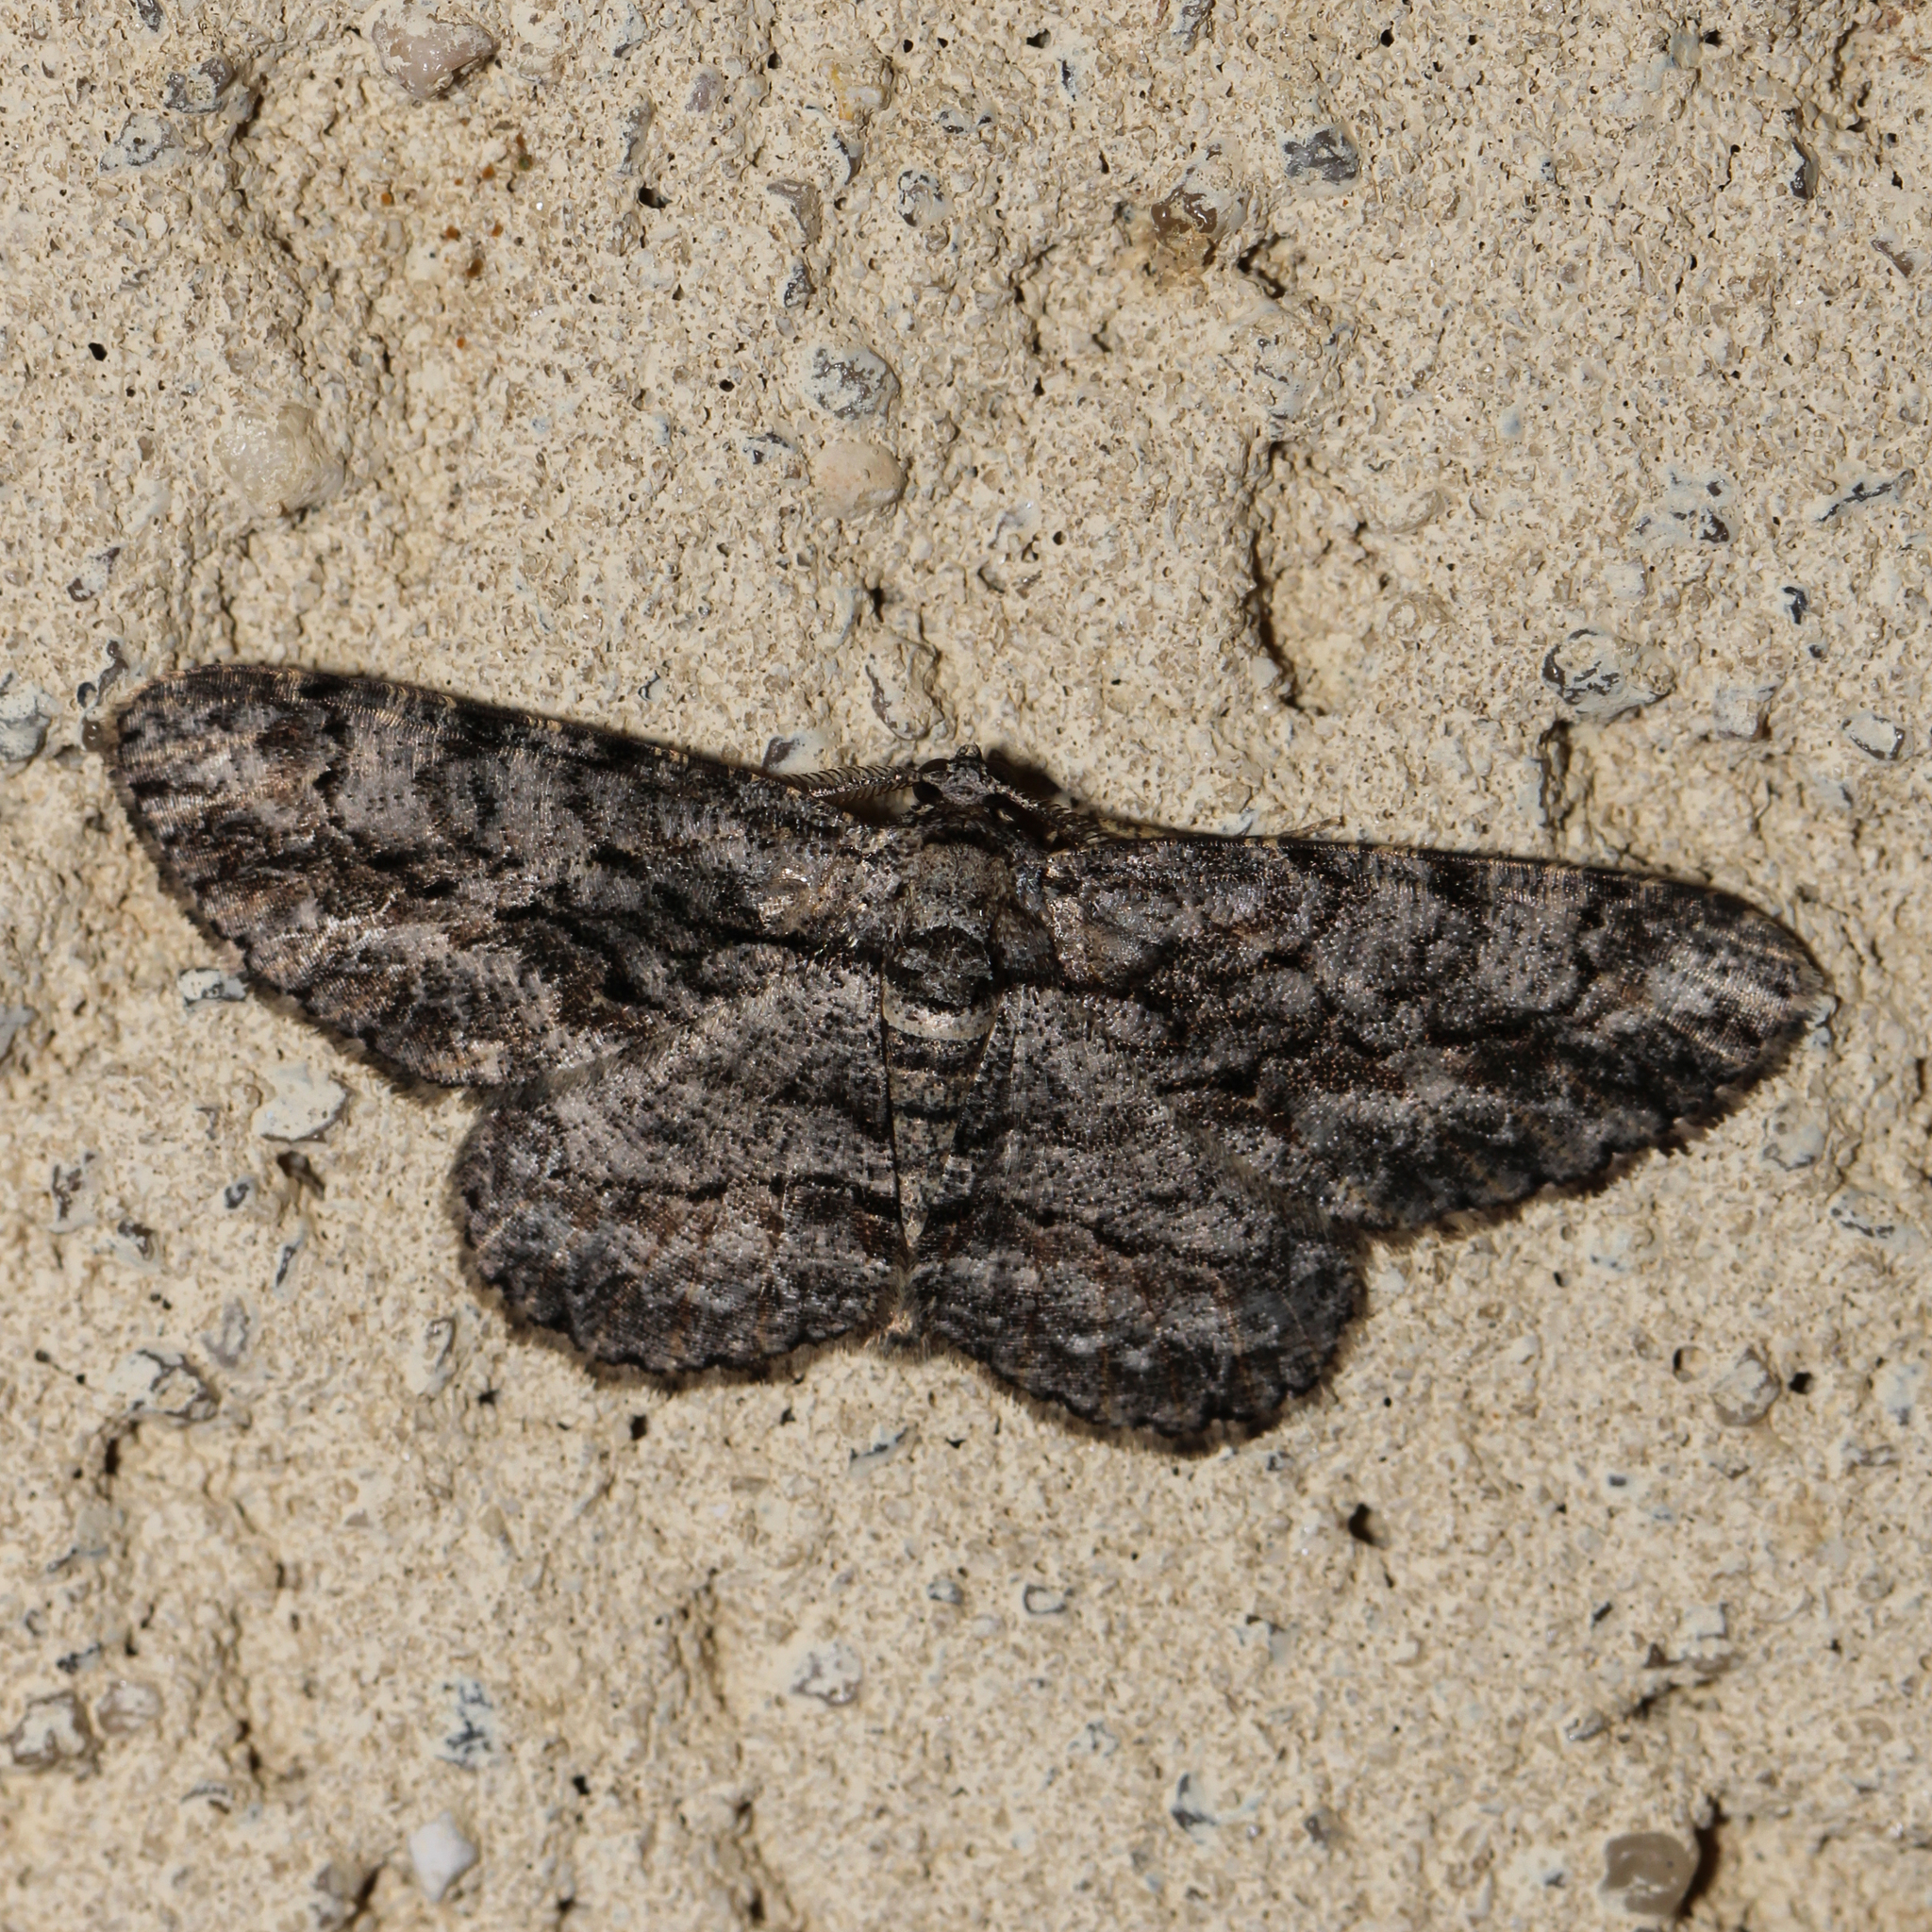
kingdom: Animalia
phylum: Arthropoda
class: Insecta
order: Lepidoptera
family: Geometridae
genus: Anavitrinella
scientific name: Anavitrinella pampinaria
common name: Common gray
